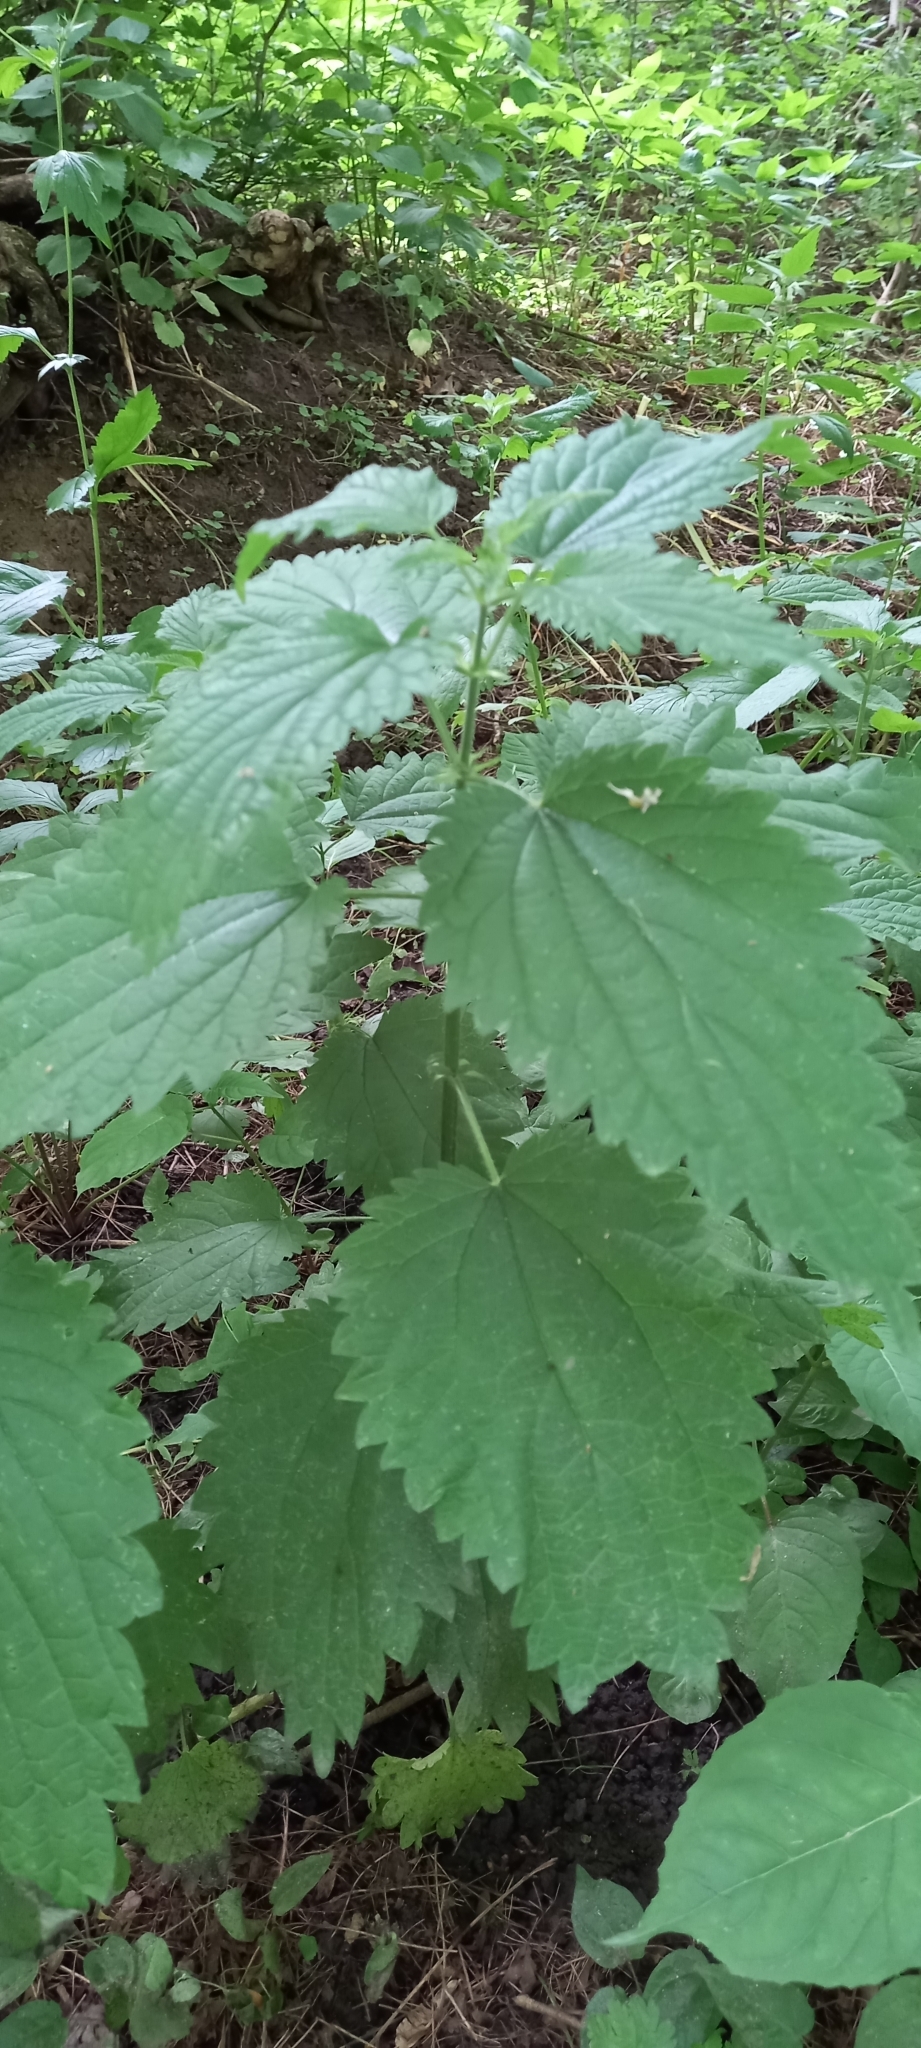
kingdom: Plantae
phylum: Tracheophyta
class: Magnoliopsida
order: Rosales
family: Urticaceae
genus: Urtica
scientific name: Urtica dioica
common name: Common nettle
